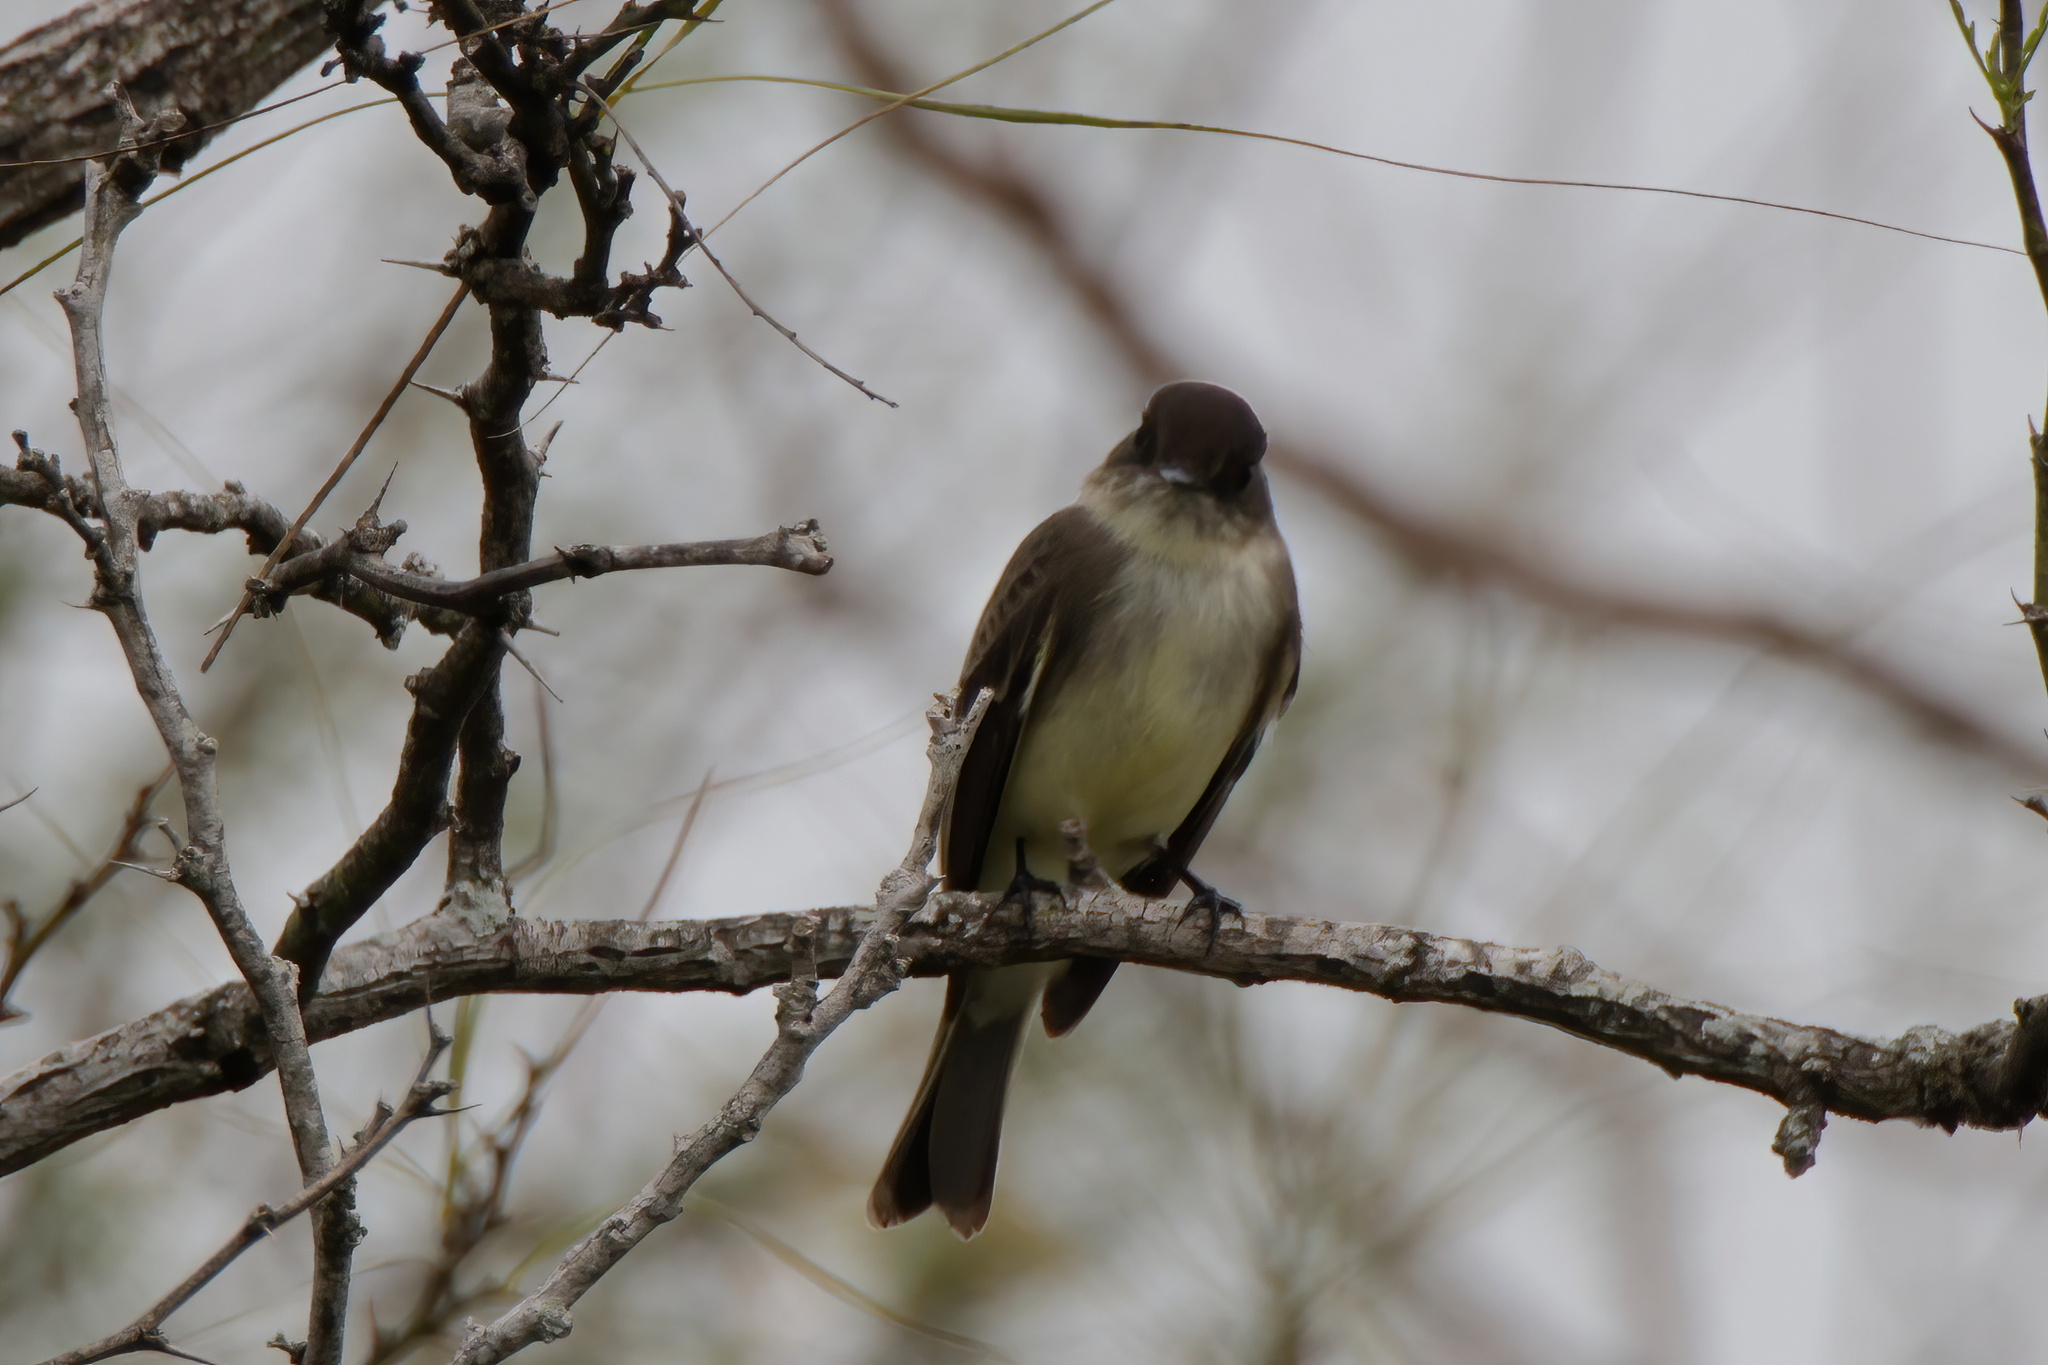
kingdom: Animalia
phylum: Chordata
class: Aves
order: Passeriformes
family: Tyrannidae
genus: Sayornis
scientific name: Sayornis phoebe
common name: Eastern phoebe
